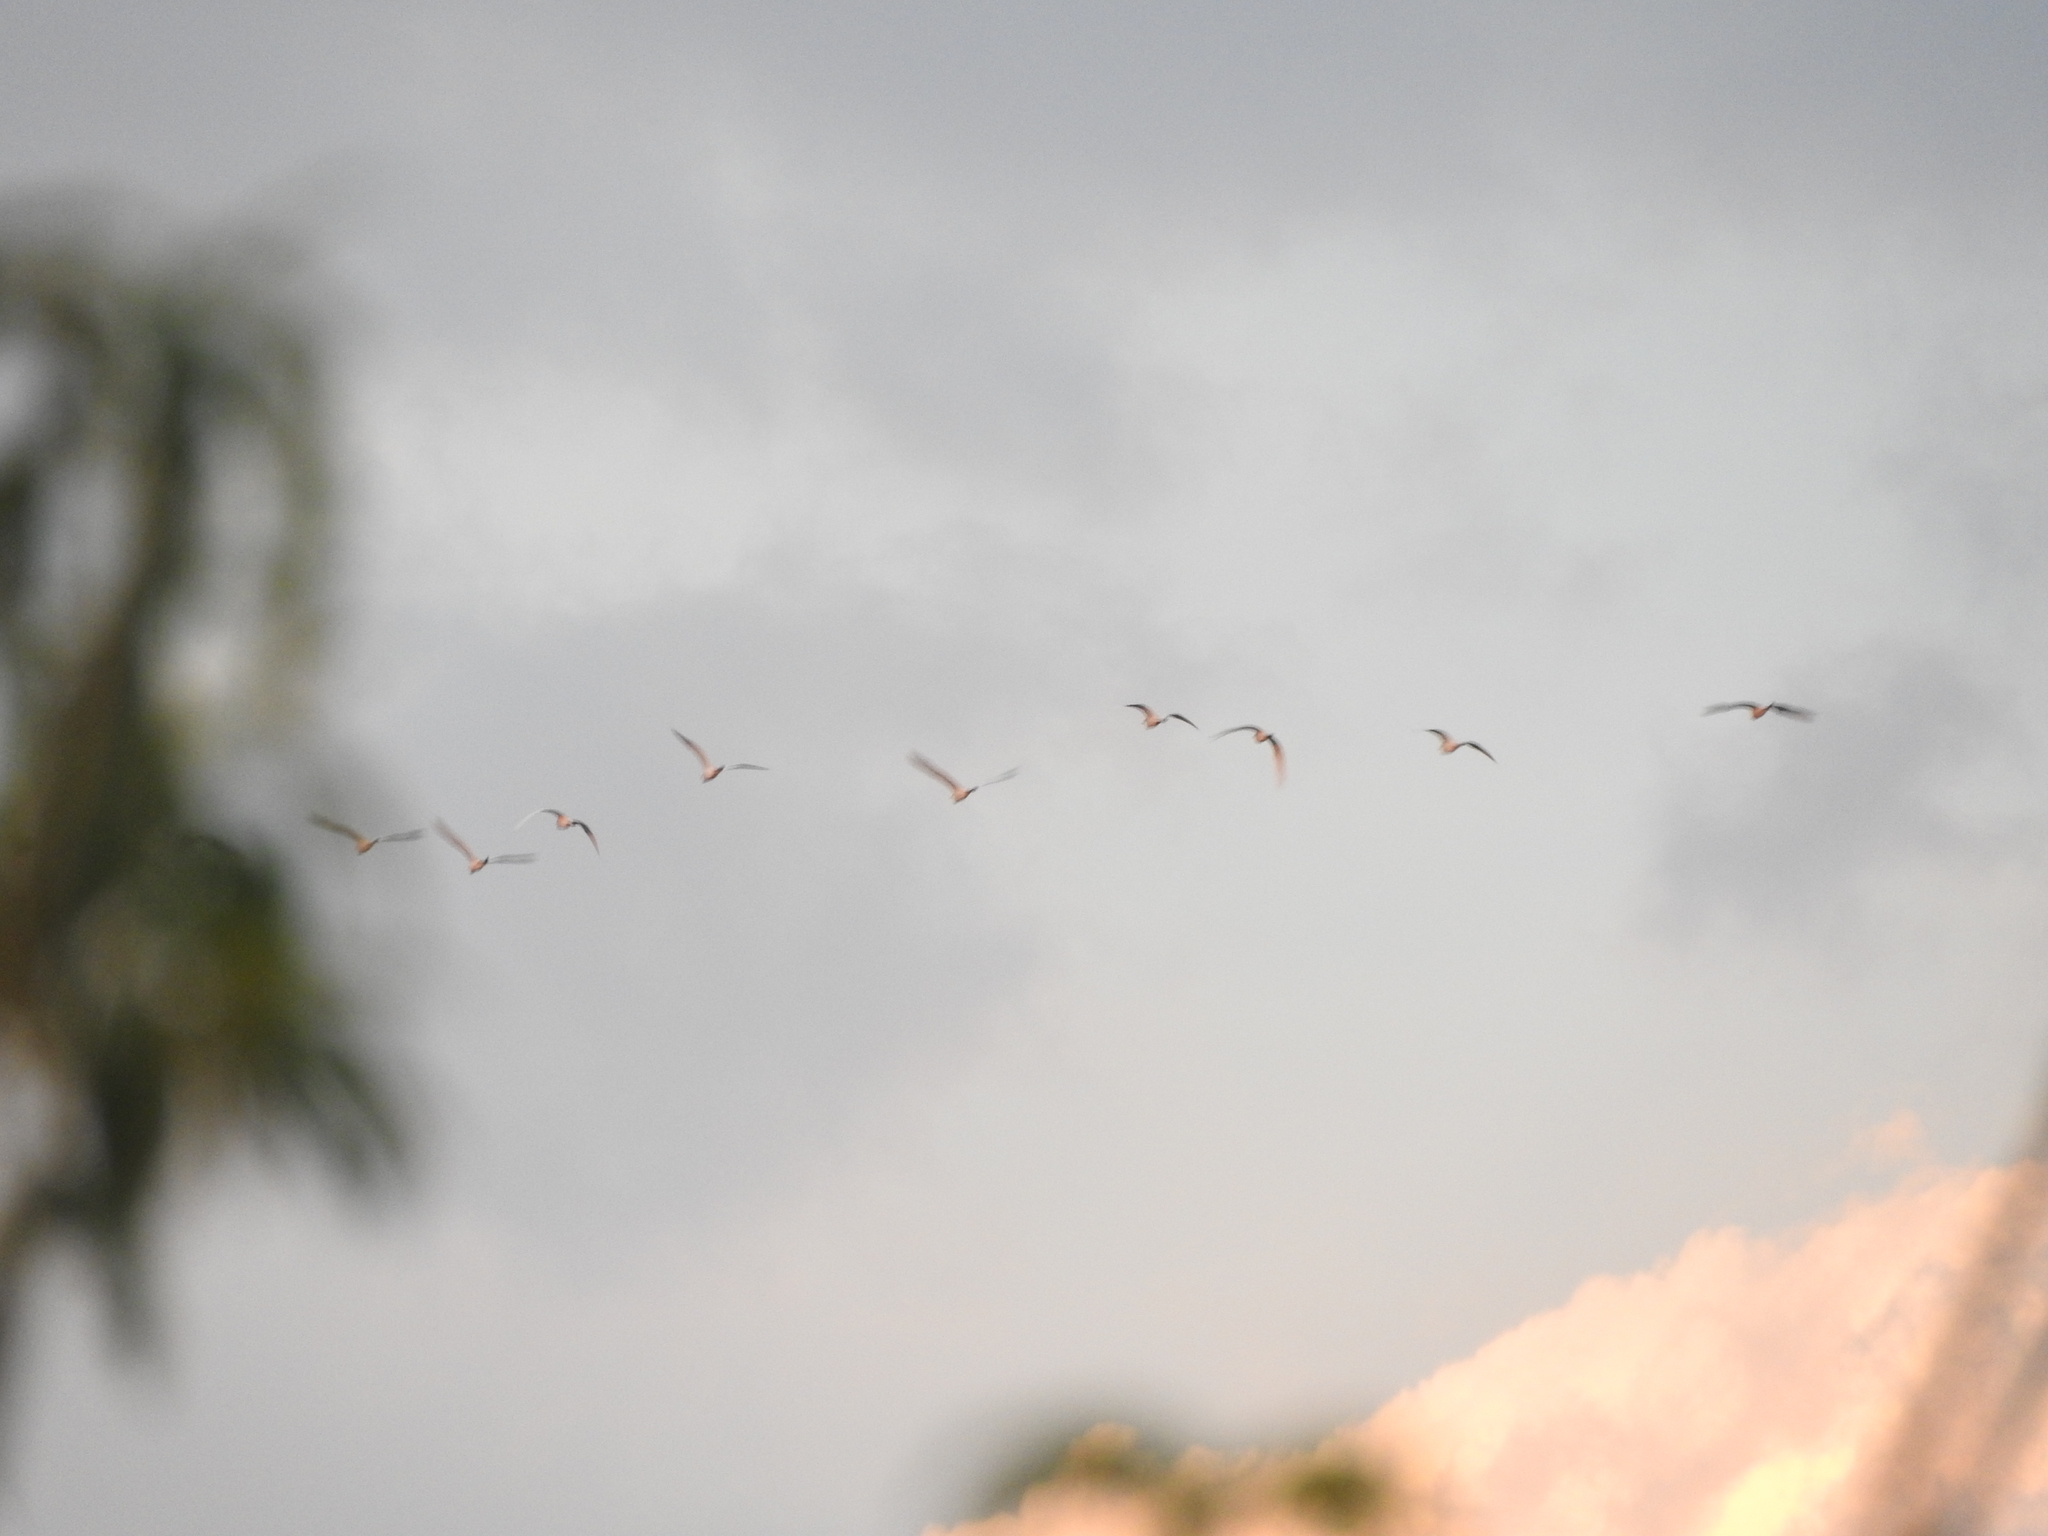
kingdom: Animalia
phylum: Chordata
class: Aves
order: Pelecaniformes
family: Ardeidae
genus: Bubulcus
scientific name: Bubulcus ibis
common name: Cattle egret
